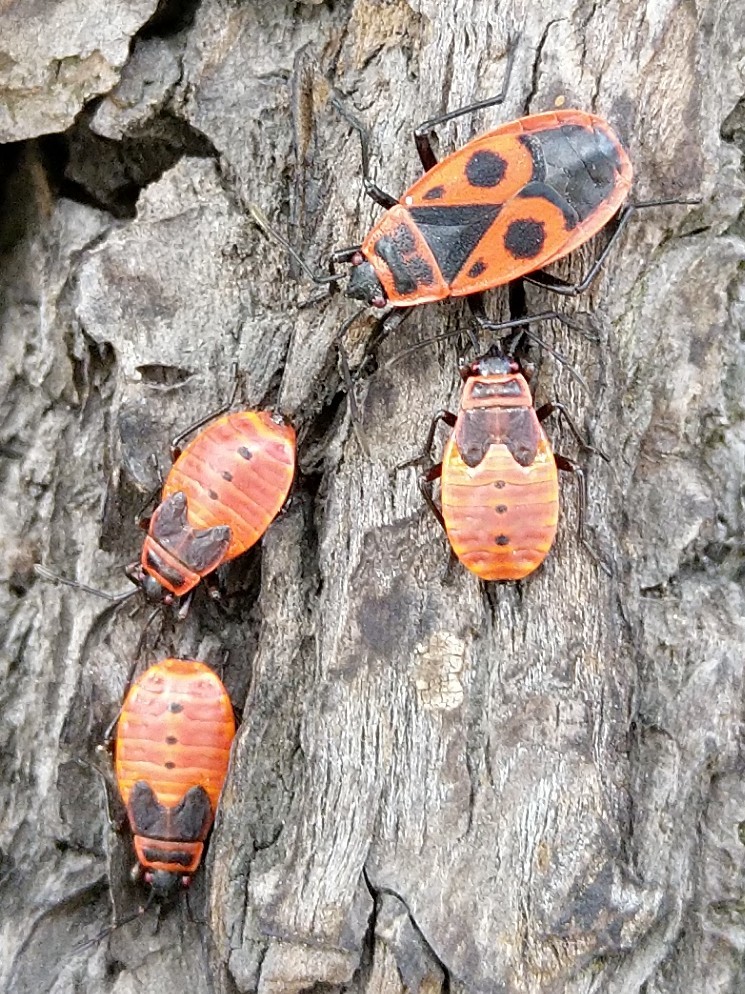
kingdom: Animalia
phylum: Arthropoda
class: Insecta
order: Hemiptera
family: Pyrrhocoridae
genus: Pyrrhocoris
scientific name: Pyrrhocoris apterus
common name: Firebug
